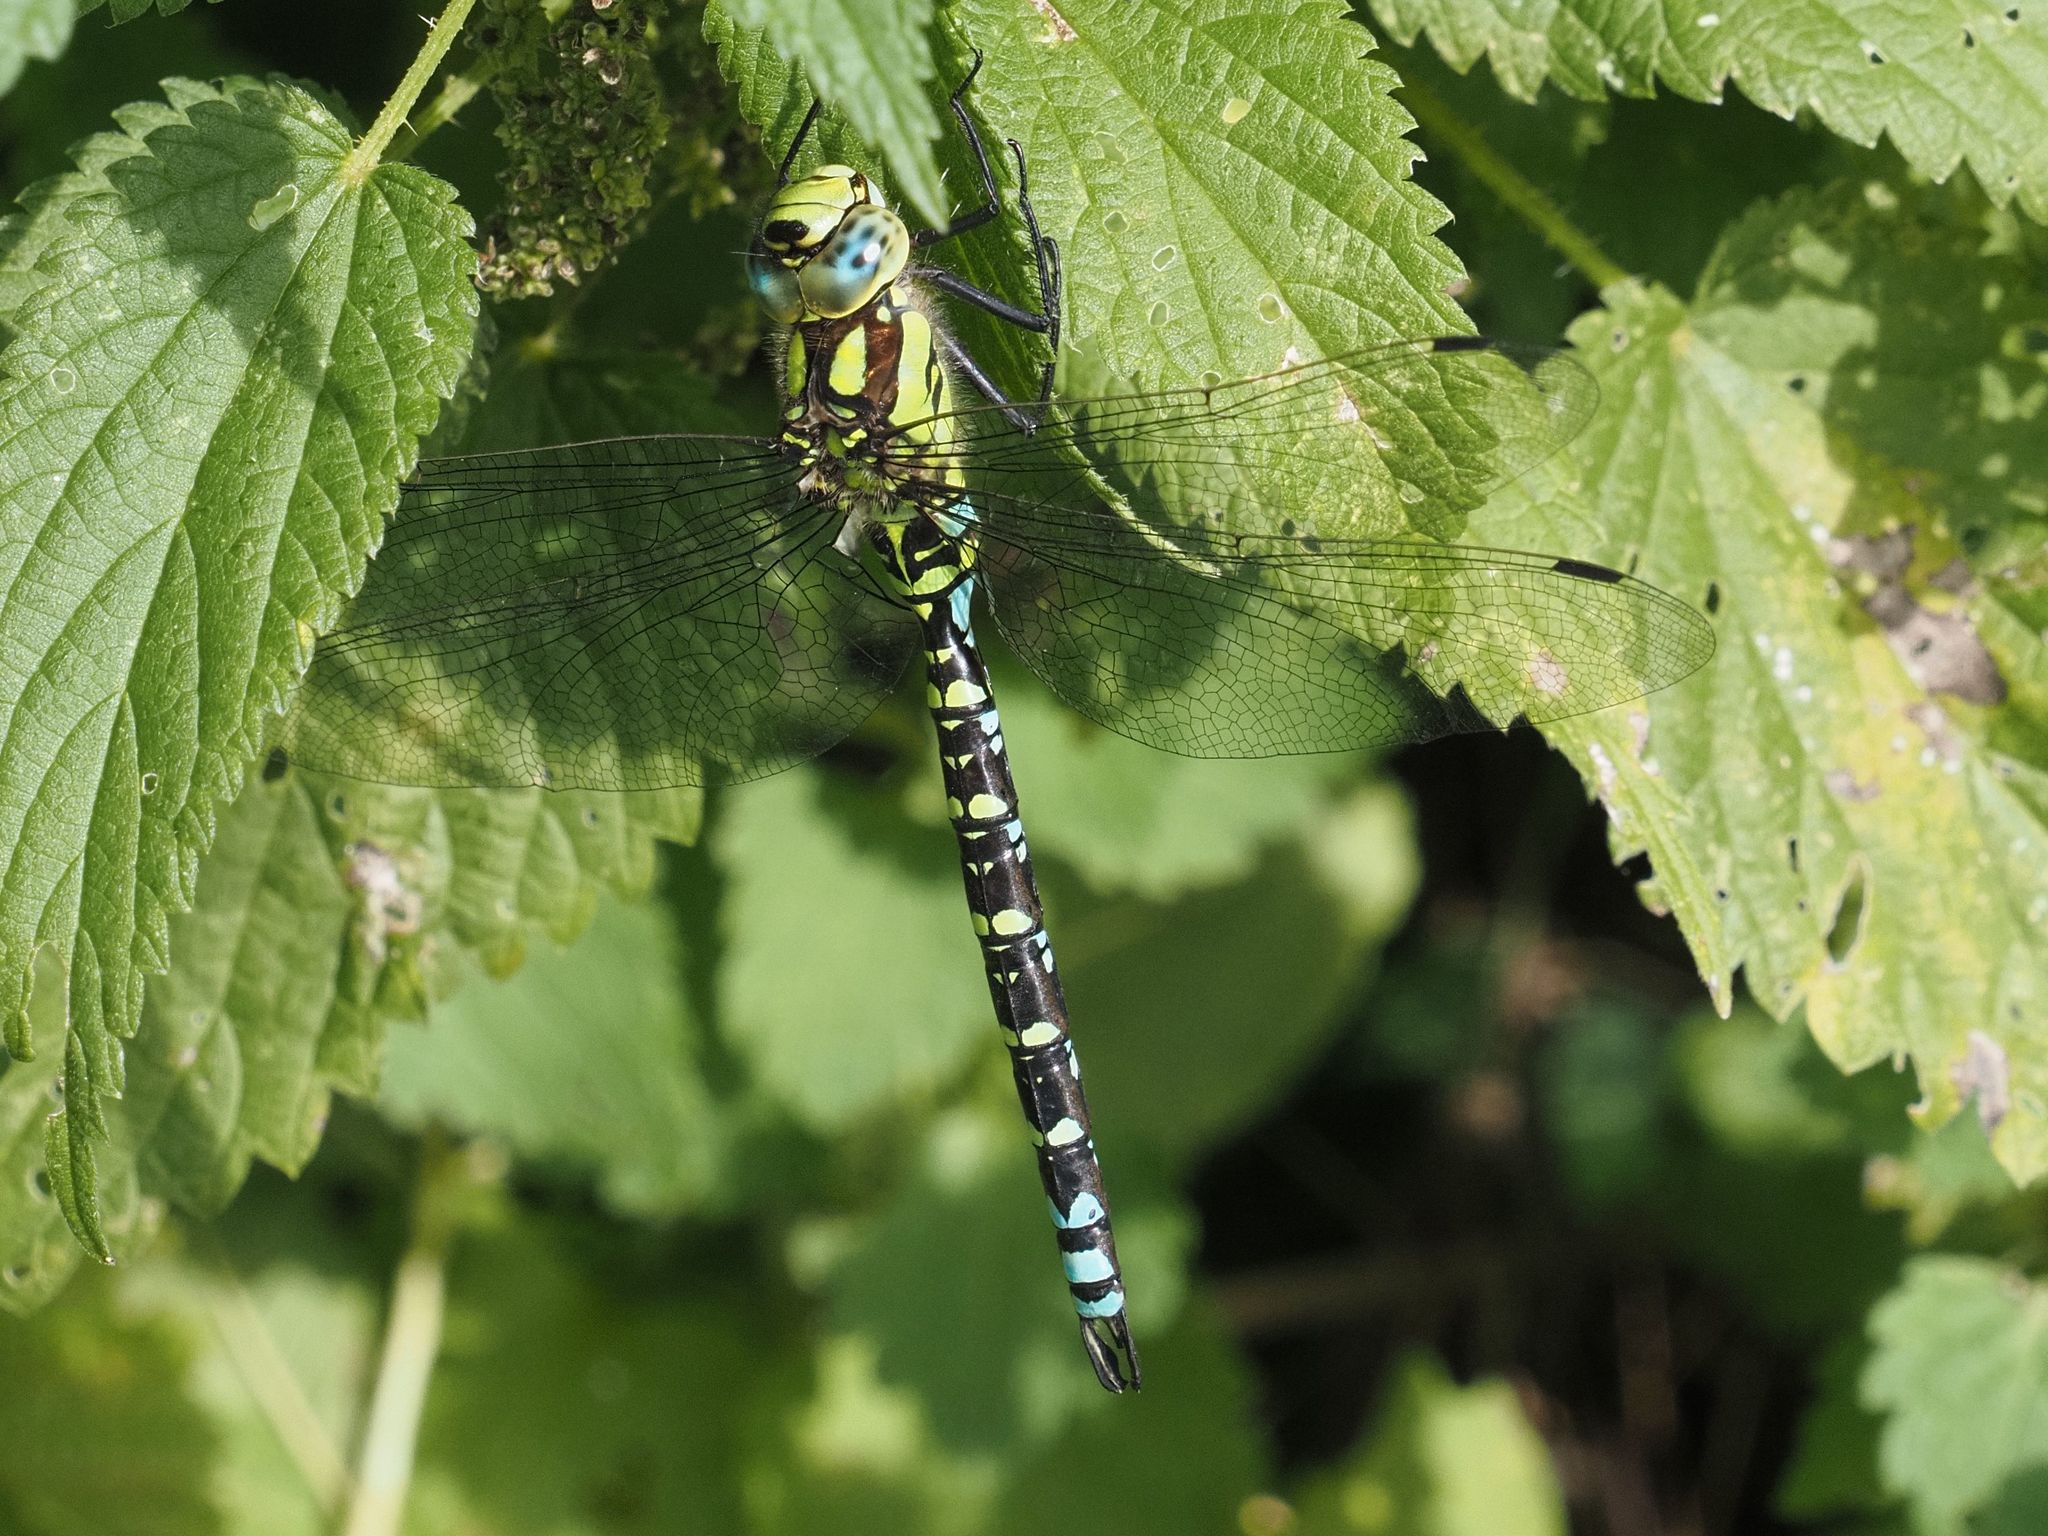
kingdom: Animalia
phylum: Arthropoda
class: Insecta
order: Odonata
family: Aeshnidae
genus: Aeshna
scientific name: Aeshna cyanea
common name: Southern hawker
